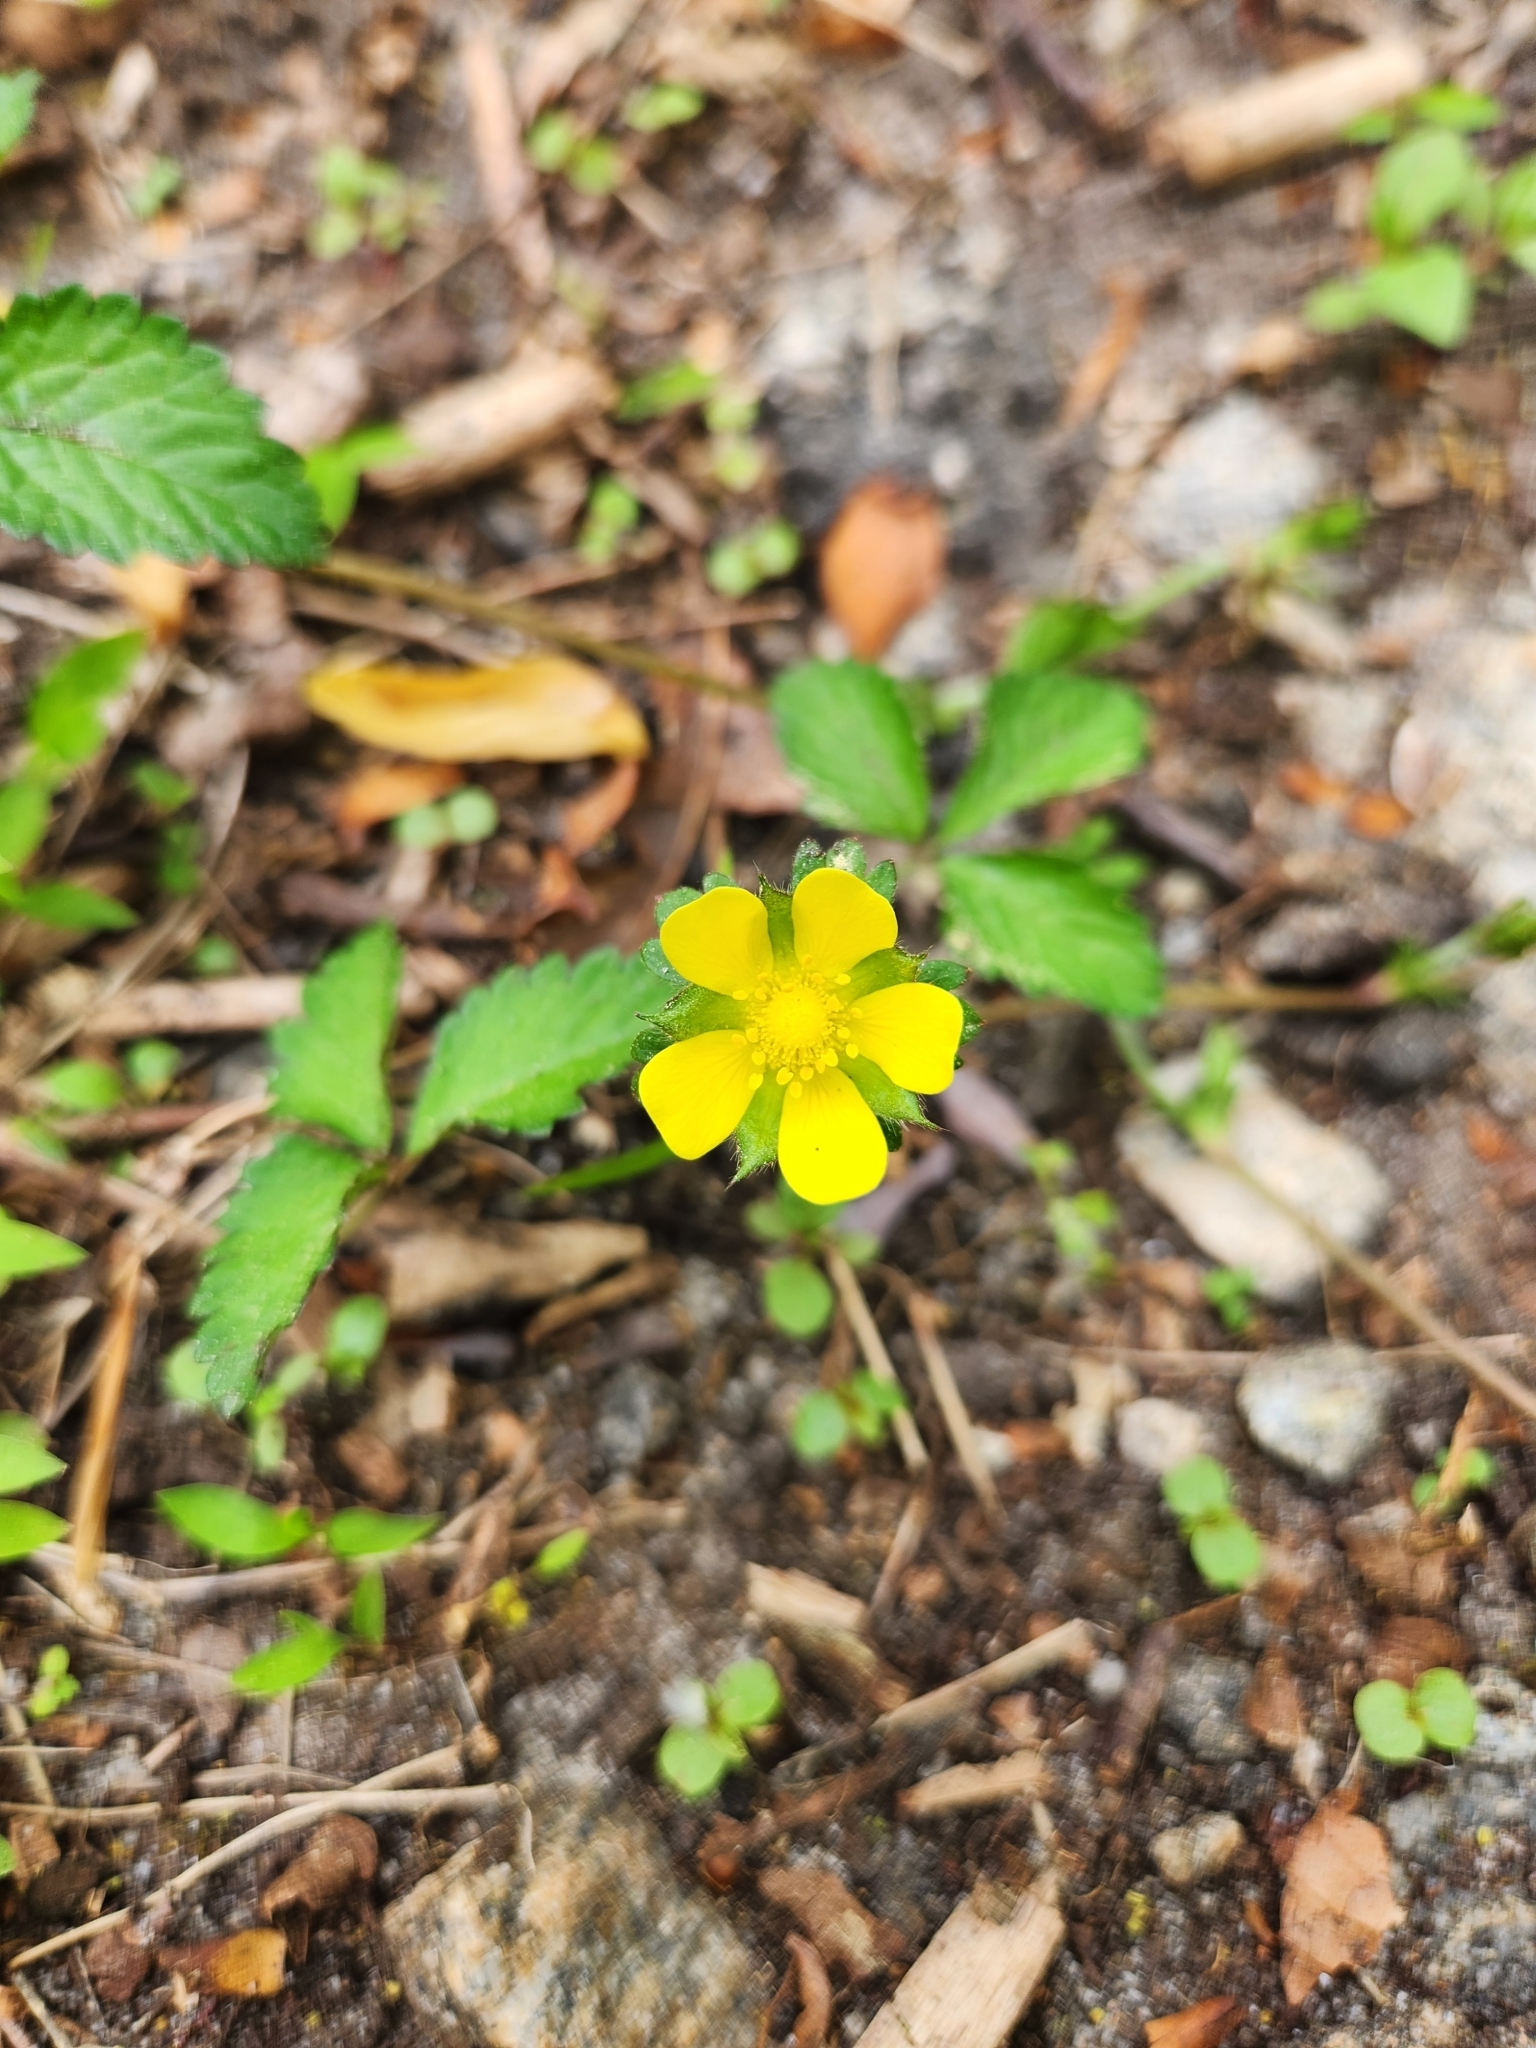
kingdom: Plantae
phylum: Tracheophyta
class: Magnoliopsida
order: Rosales
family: Rosaceae
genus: Potentilla
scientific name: Potentilla indica
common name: Yellow-flowered strawberry
